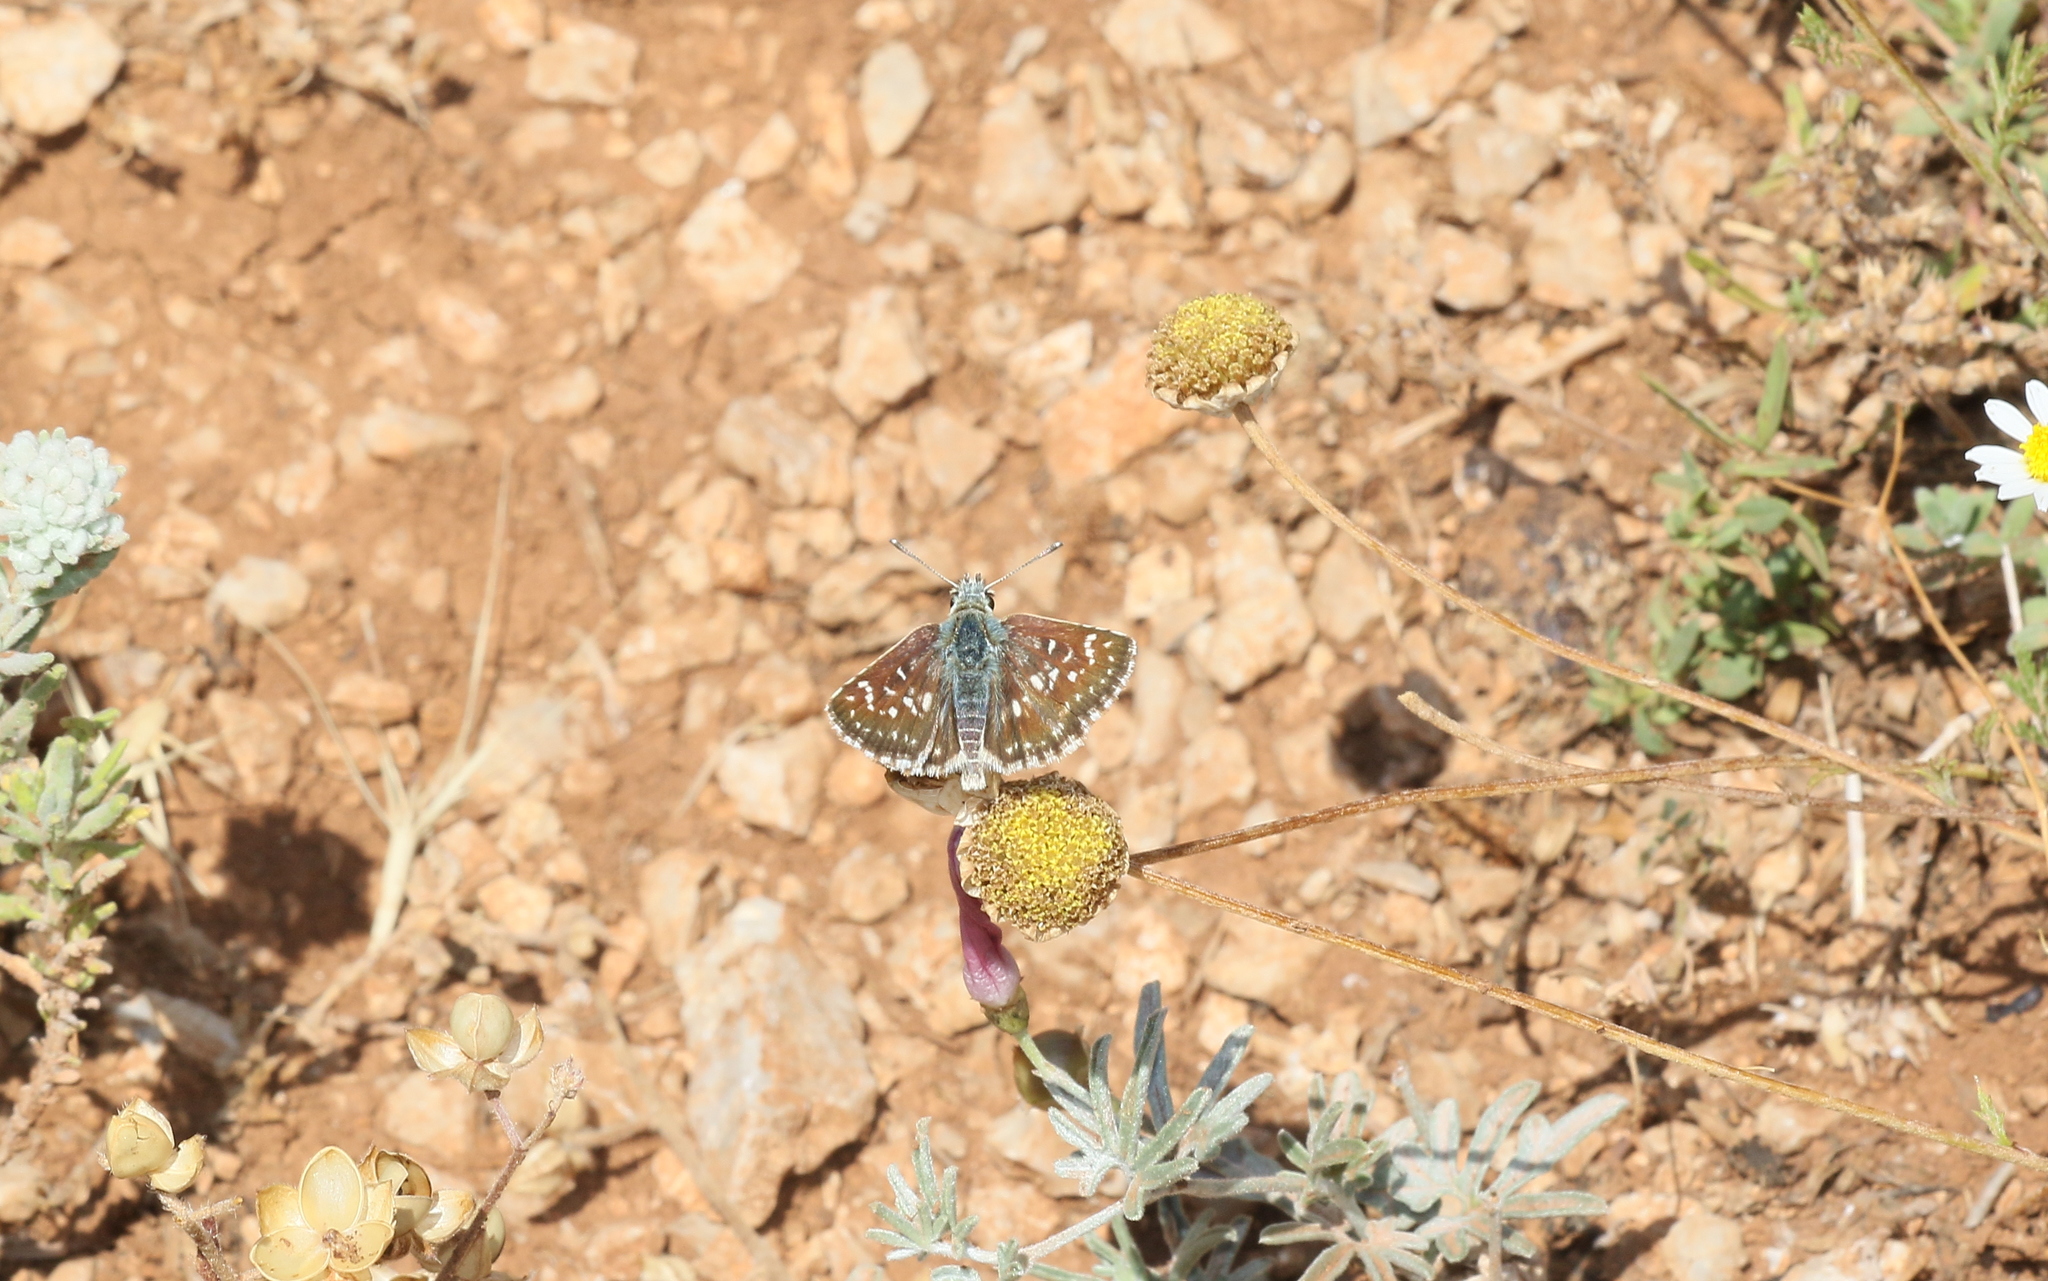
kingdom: Animalia
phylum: Arthropoda
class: Insecta
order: Lepidoptera
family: Hesperiidae
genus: Spialia
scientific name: Spialia sertorius
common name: Red underwing skipper
